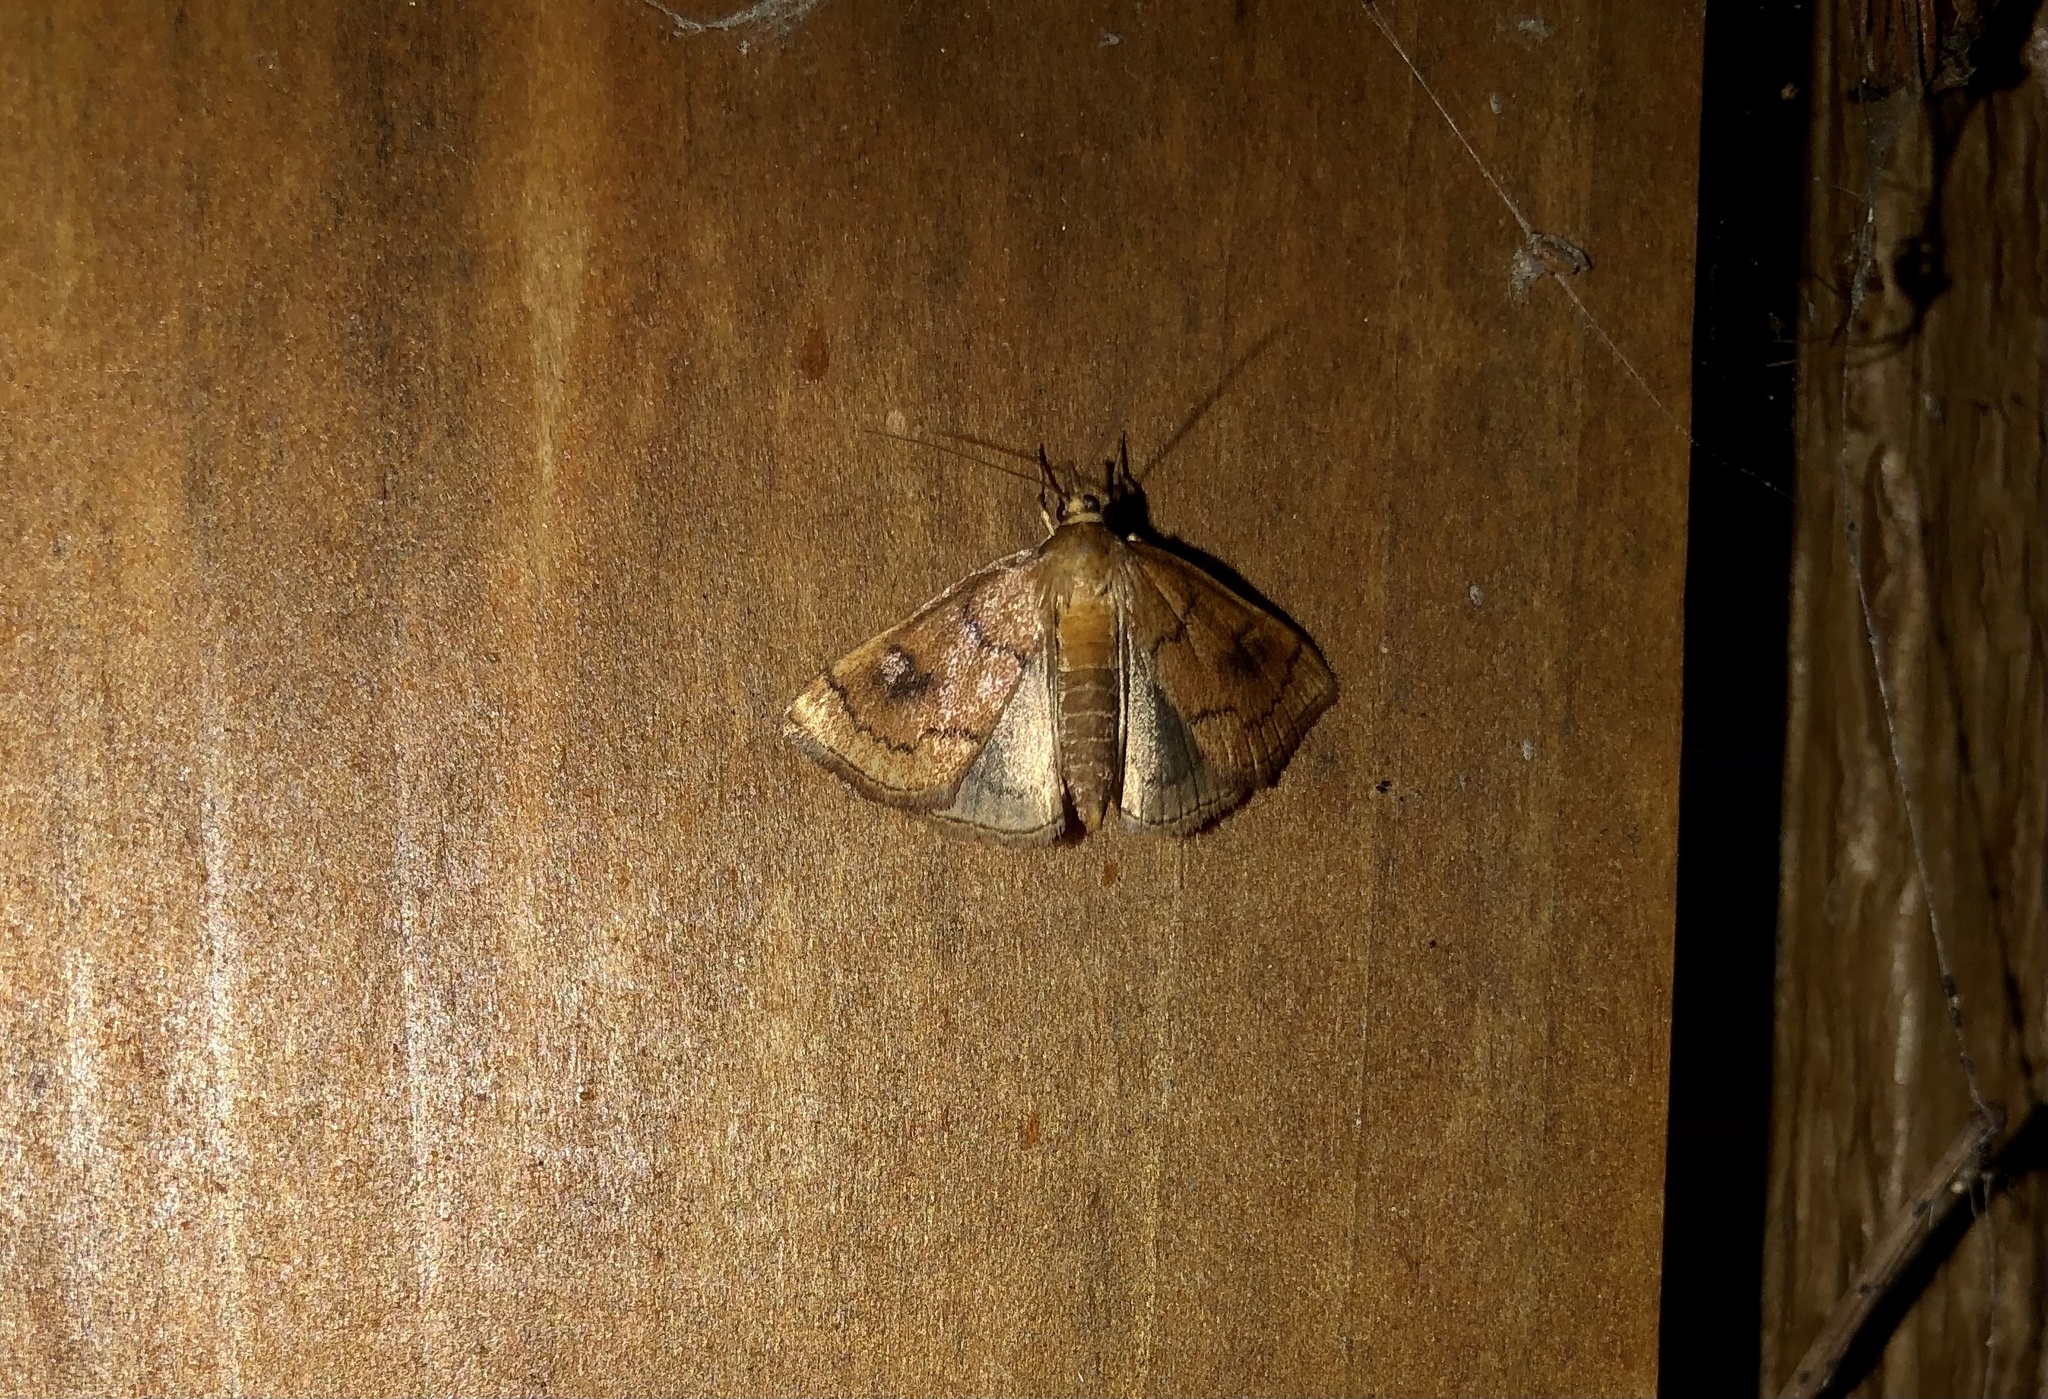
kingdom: Animalia
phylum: Arthropoda
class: Insecta
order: Lepidoptera
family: Crambidae
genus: Fumibotys
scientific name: Fumibotys fumalis
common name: Mint root borer moth
